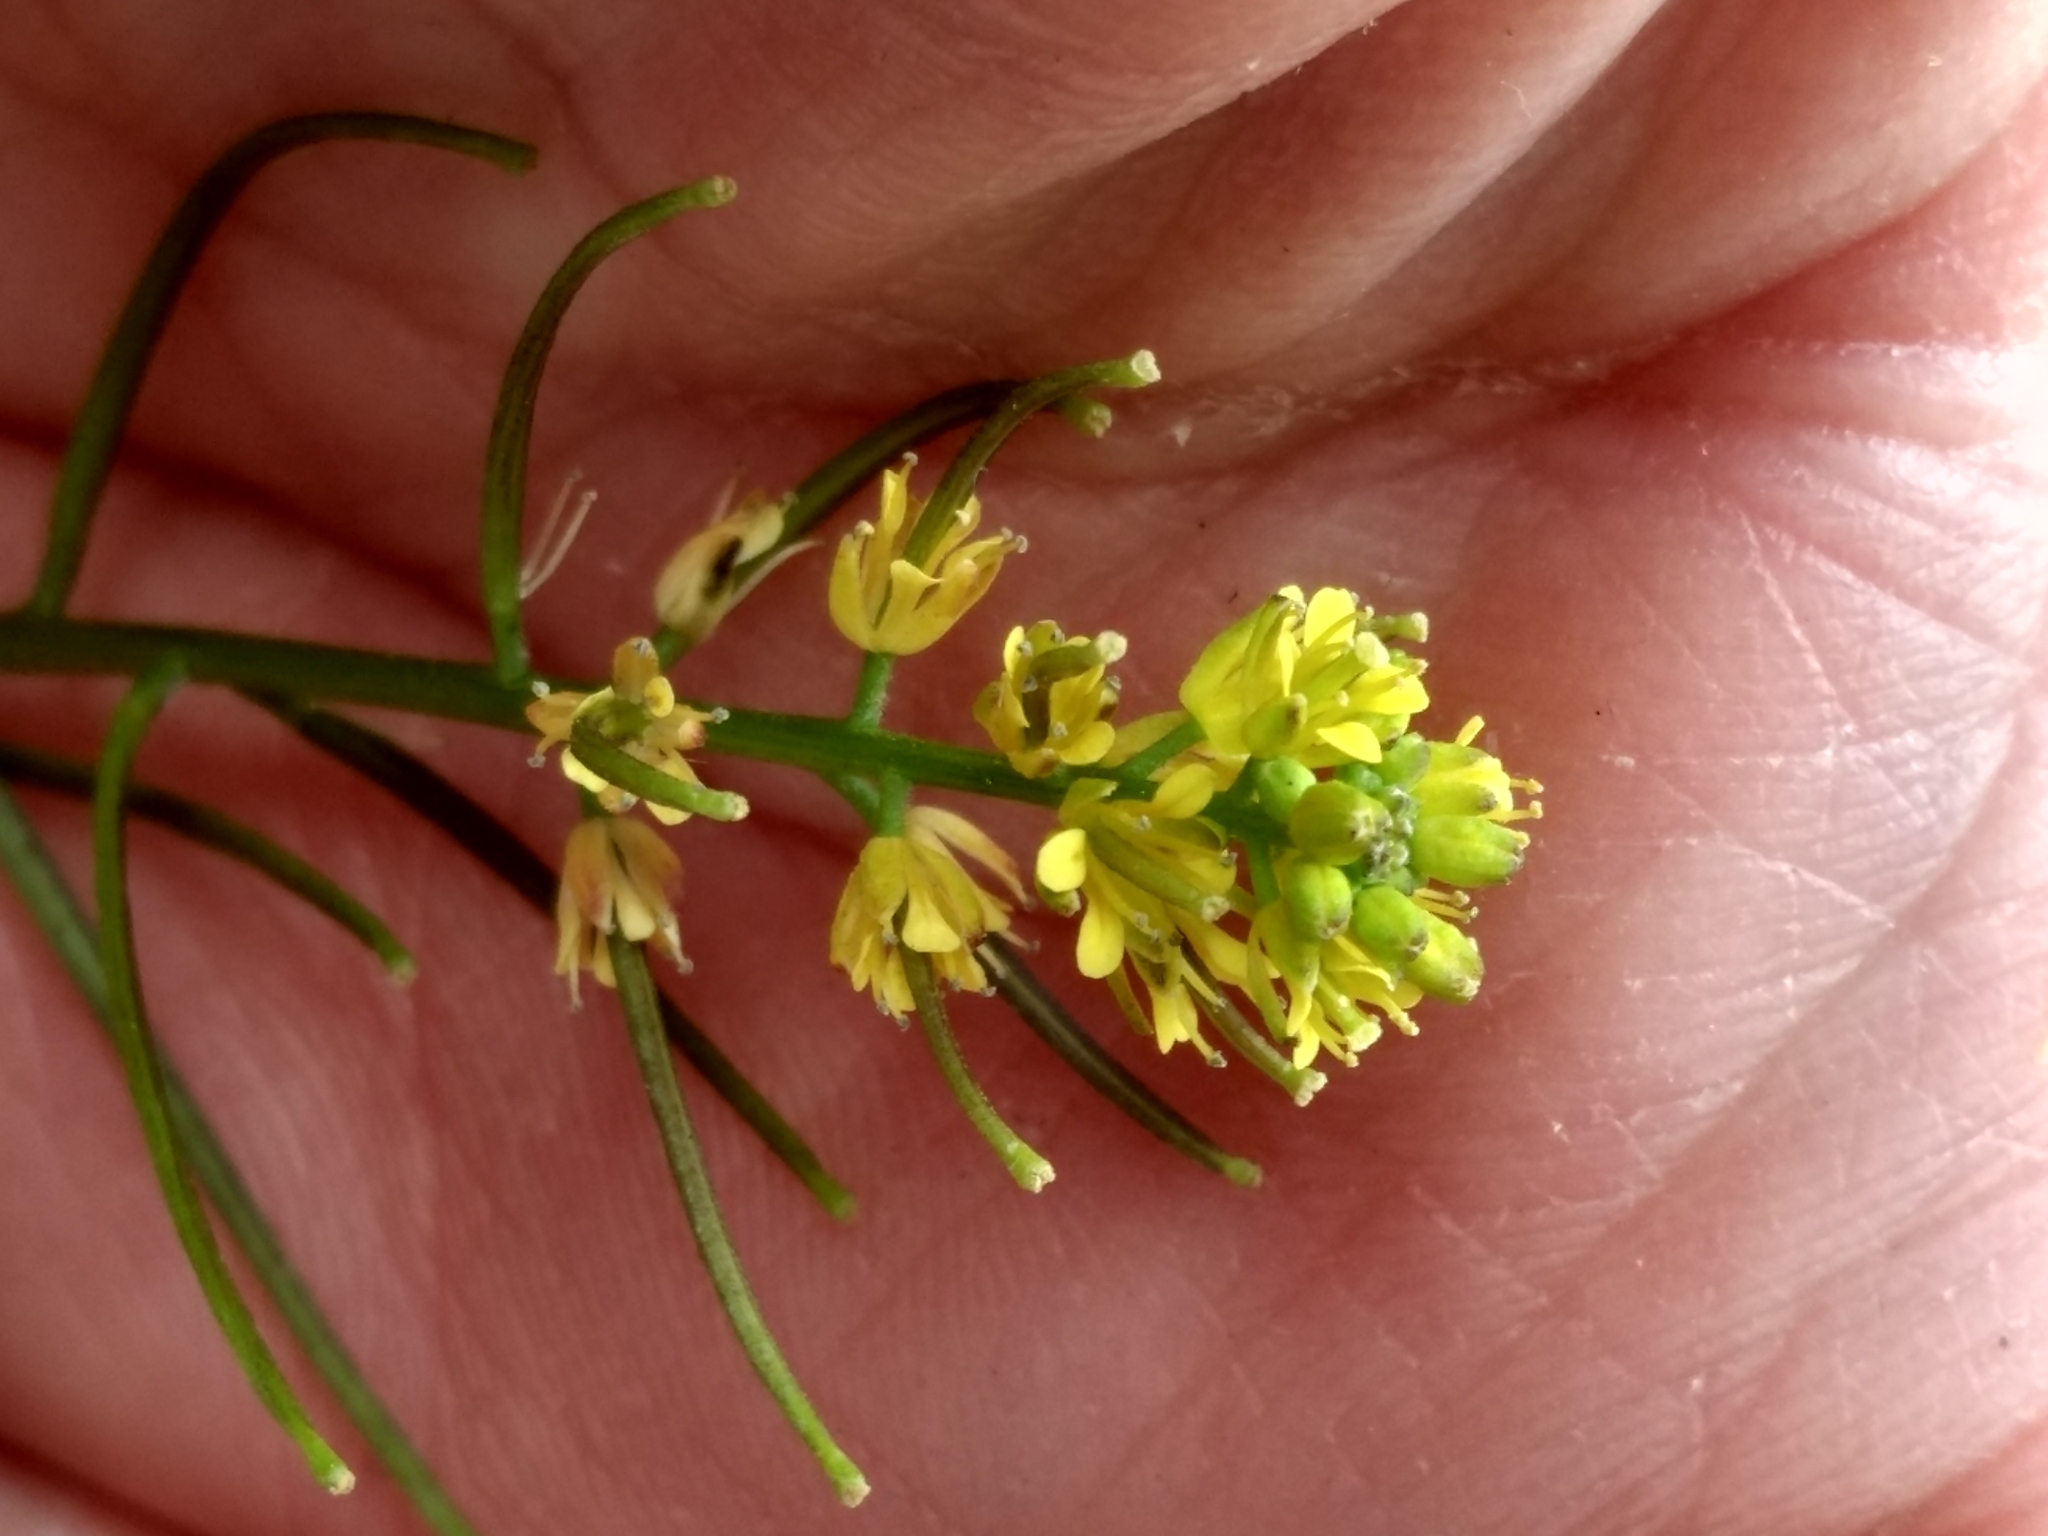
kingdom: Plantae
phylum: Tracheophyta
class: Magnoliopsida
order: Brassicales
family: Brassicaceae
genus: Sisymbrium
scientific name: Sisymbrium irio
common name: London rocket
